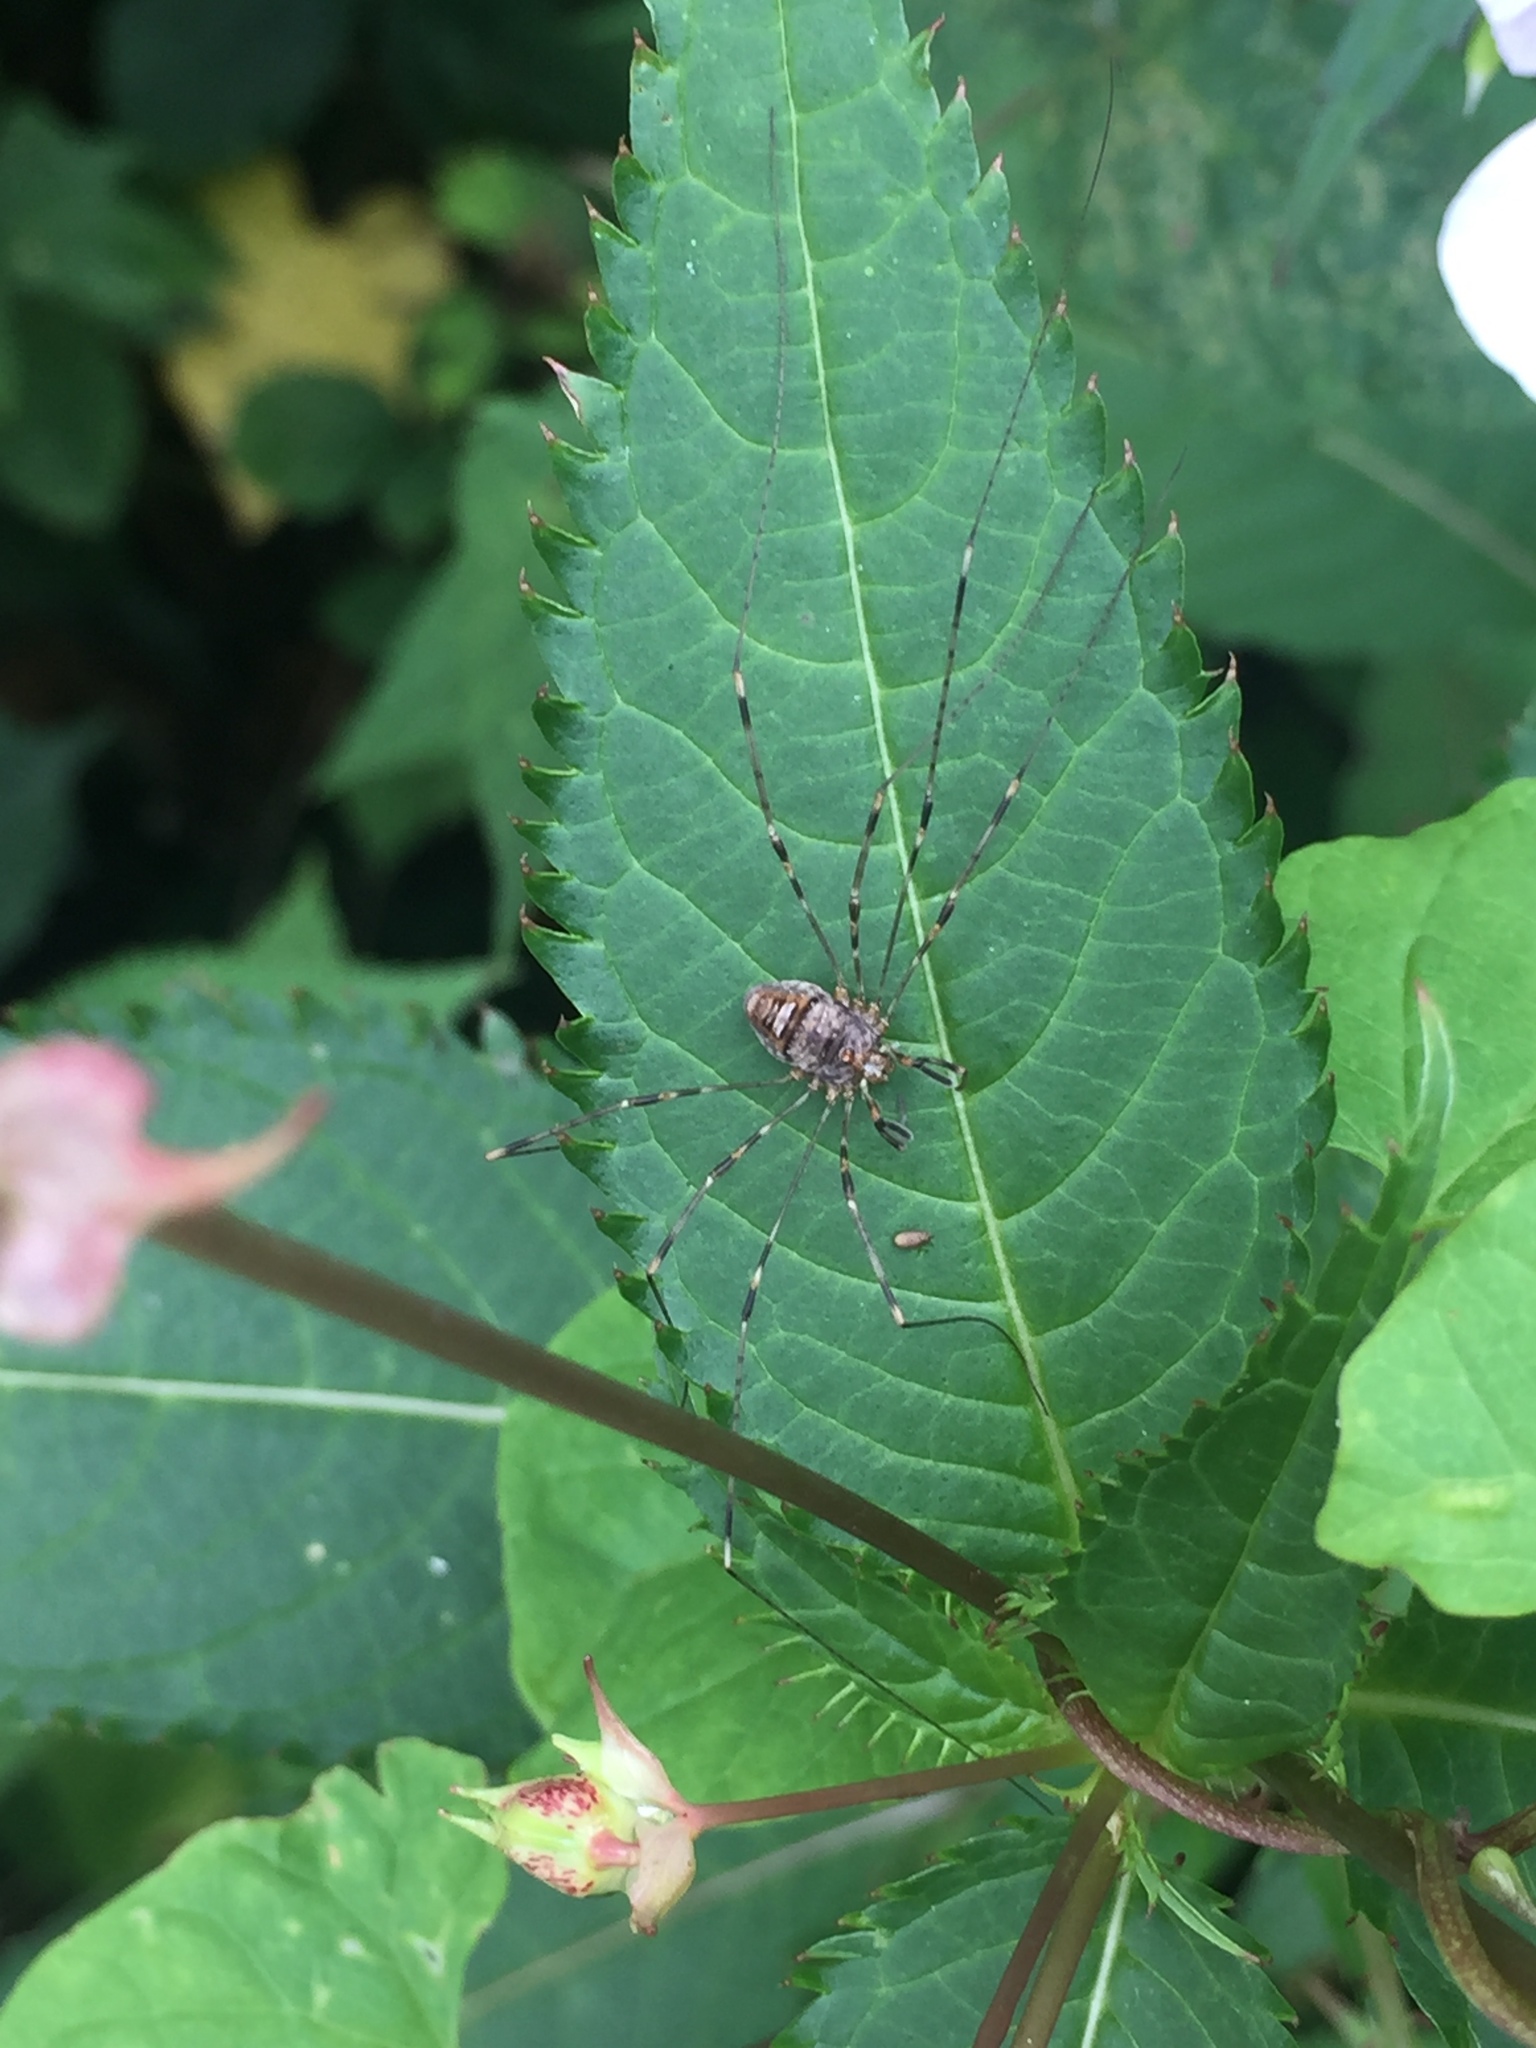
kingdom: Animalia
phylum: Arthropoda
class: Arachnida
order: Opiliones
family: Phalangiidae
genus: Dicranopalpus
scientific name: Dicranopalpus ramosus
